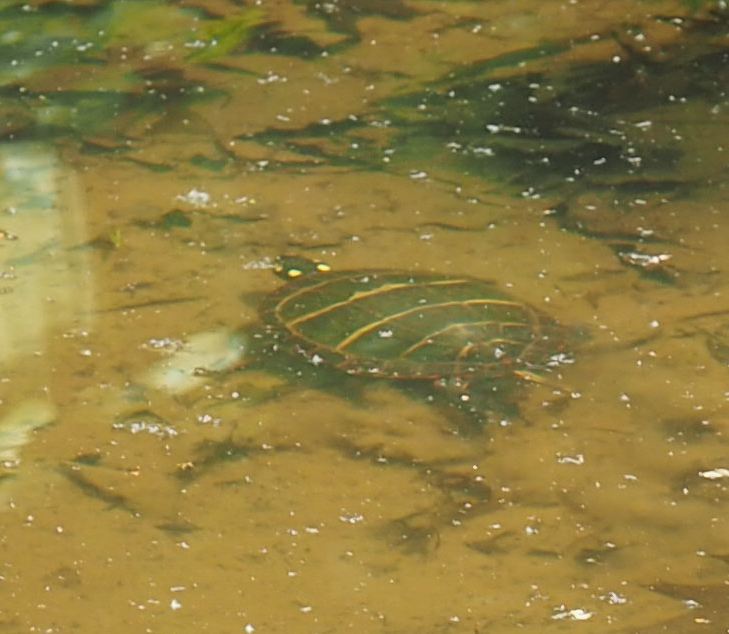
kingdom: Animalia
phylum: Chordata
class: Testudines
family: Emydidae
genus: Chrysemys
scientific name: Chrysemys picta
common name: Painted turtle
